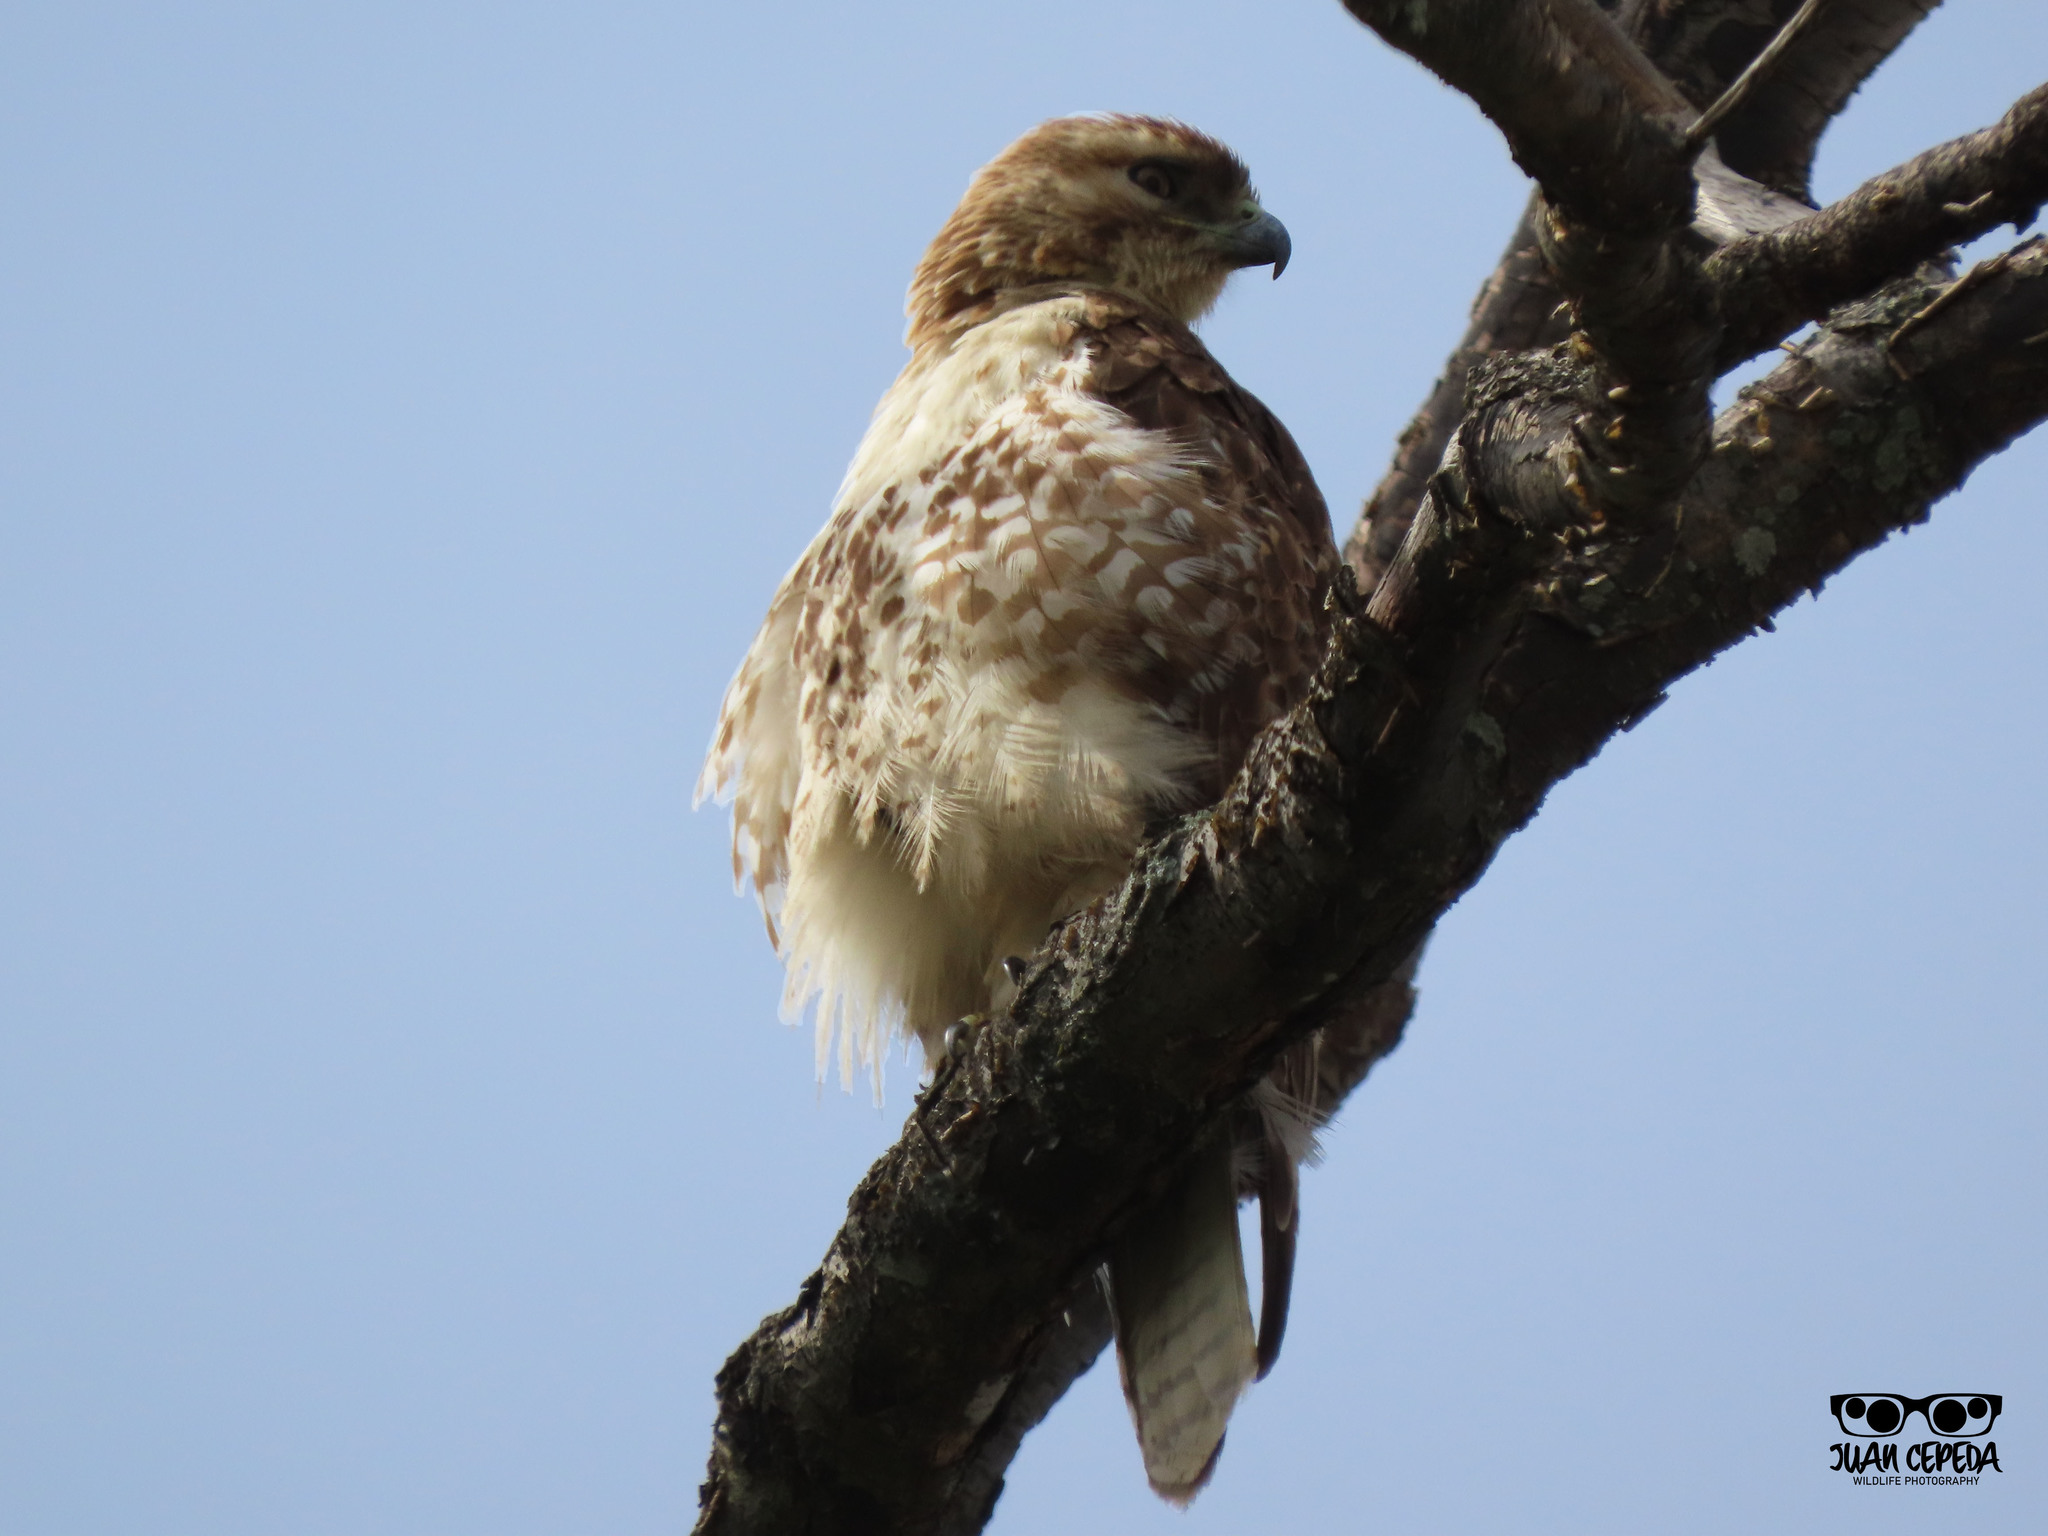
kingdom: Animalia
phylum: Chordata
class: Aves
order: Accipitriformes
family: Accipitridae
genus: Buteo
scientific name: Buteo jamaicensis
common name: Red-tailed hawk
